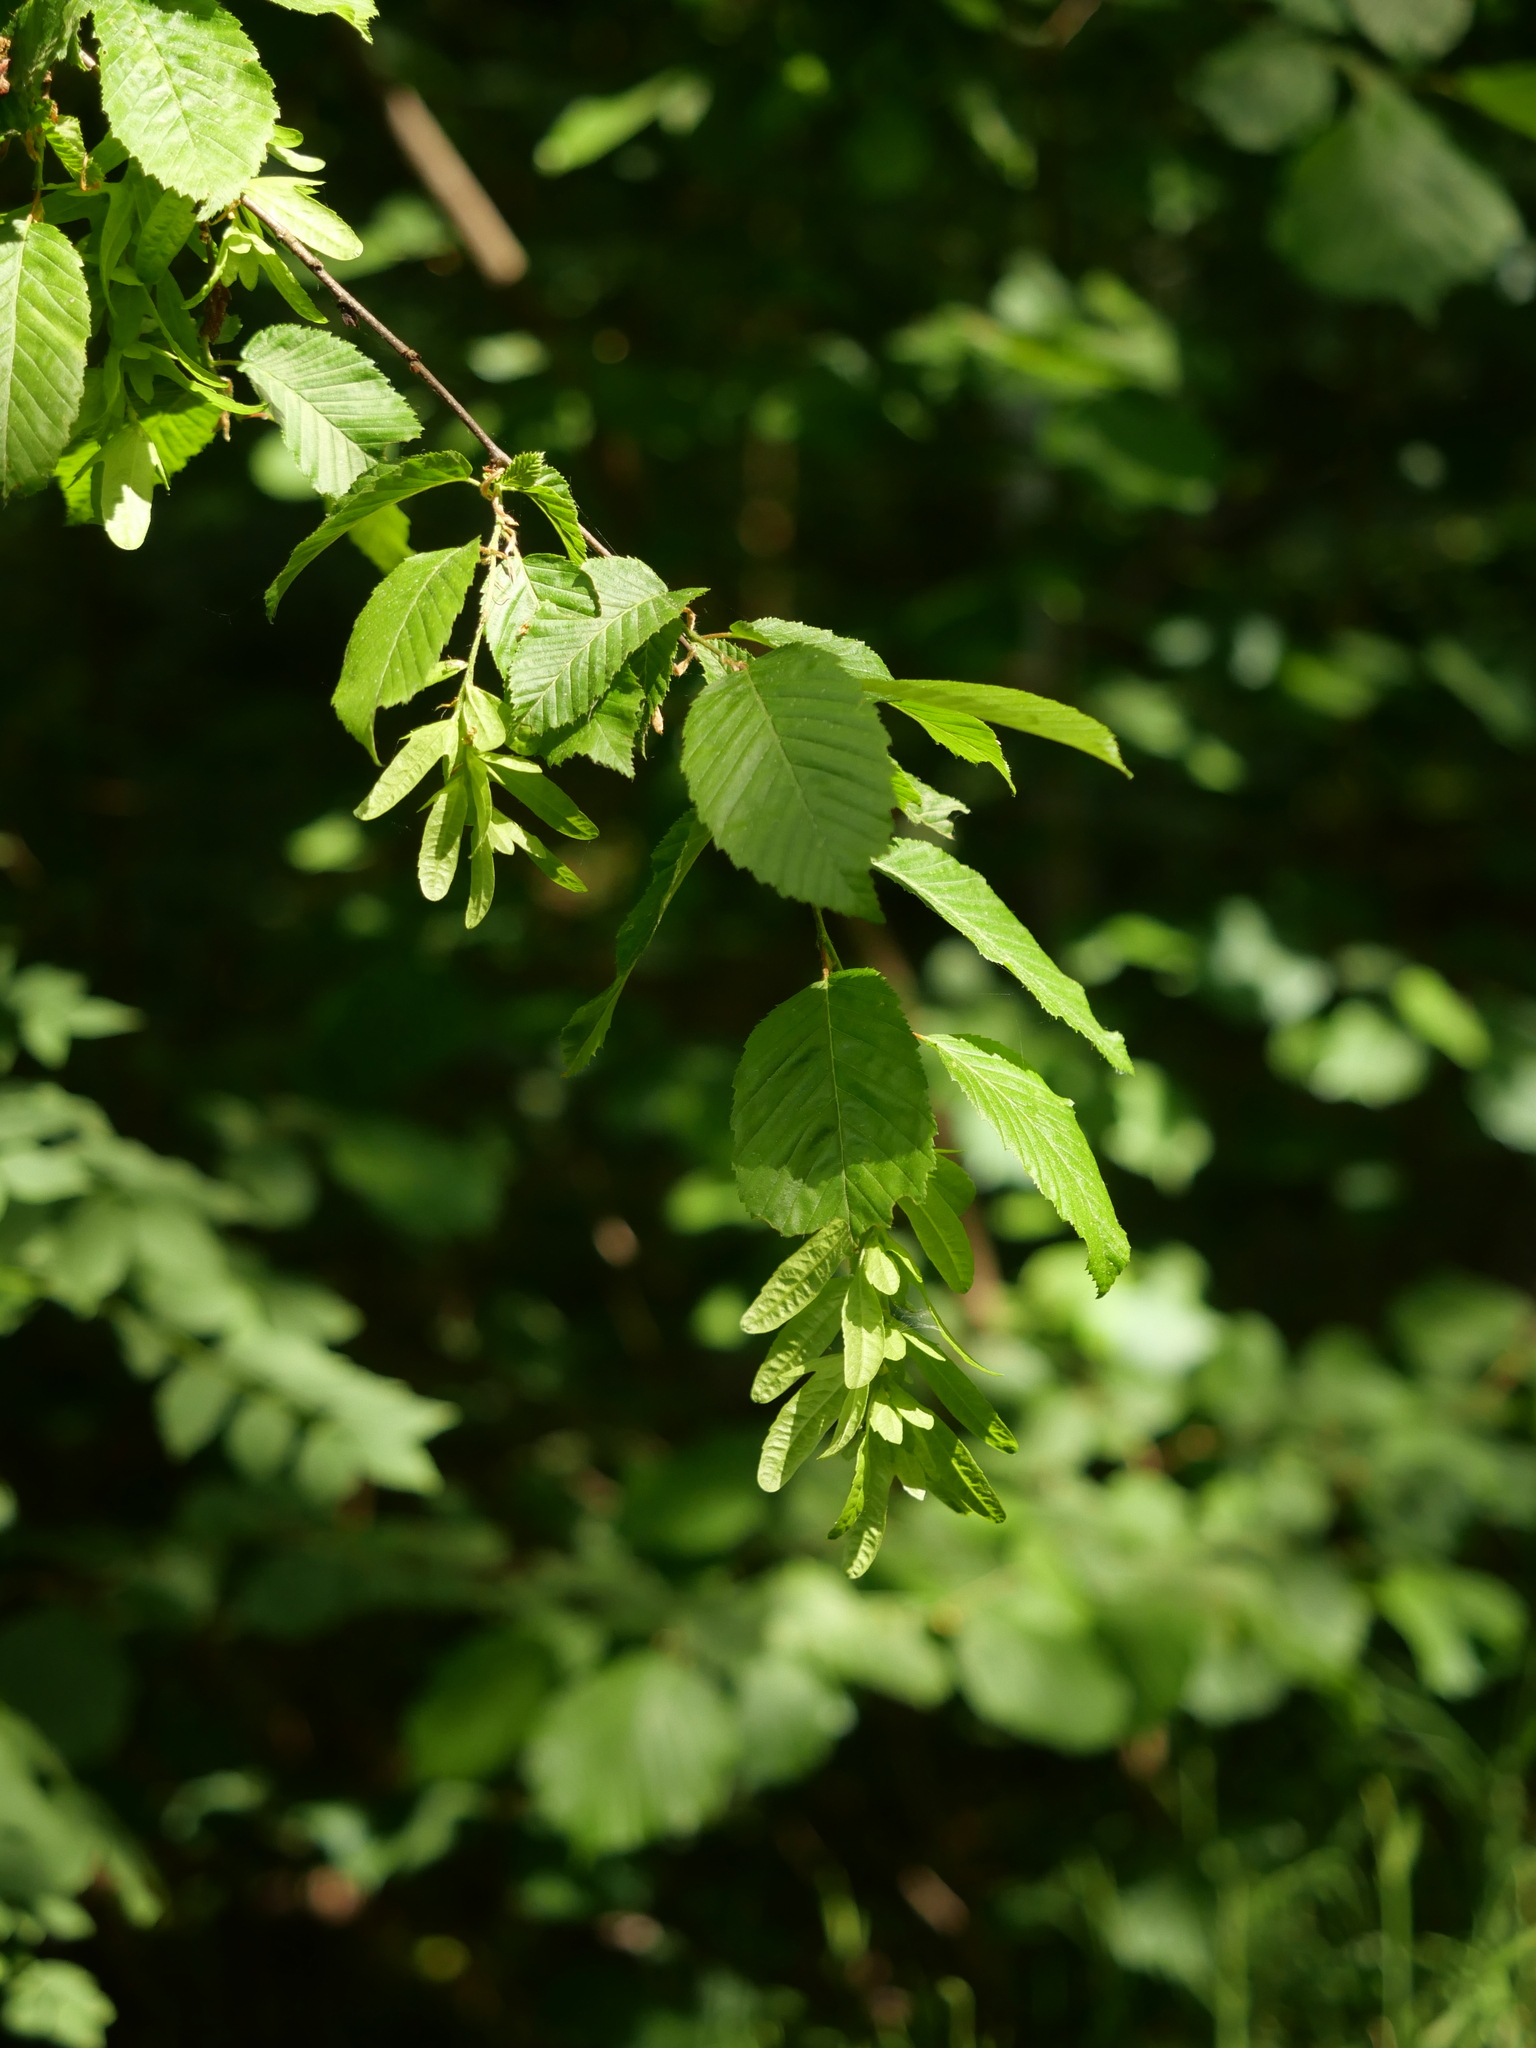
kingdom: Plantae
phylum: Tracheophyta
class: Magnoliopsida
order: Fagales
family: Betulaceae
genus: Carpinus
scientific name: Carpinus betulus
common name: Hornbeam
